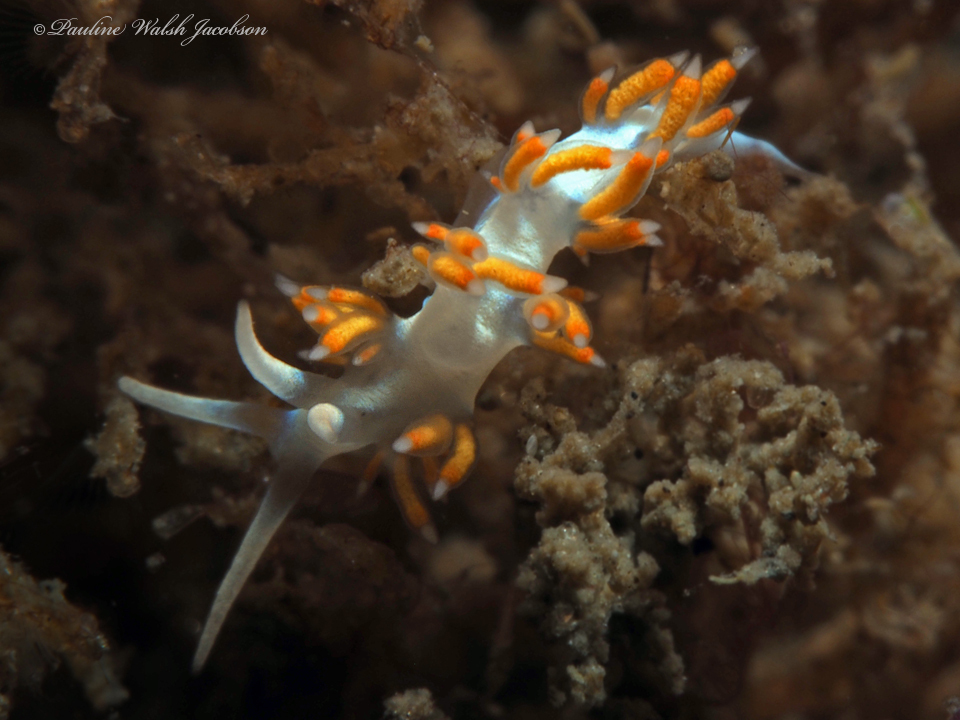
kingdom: Animalia
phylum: Mollusca
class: Gastropoda
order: Nudibranchia
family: Flabellinidae
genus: Flabellina
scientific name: Flabellina dushia
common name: Dushia flabellina
